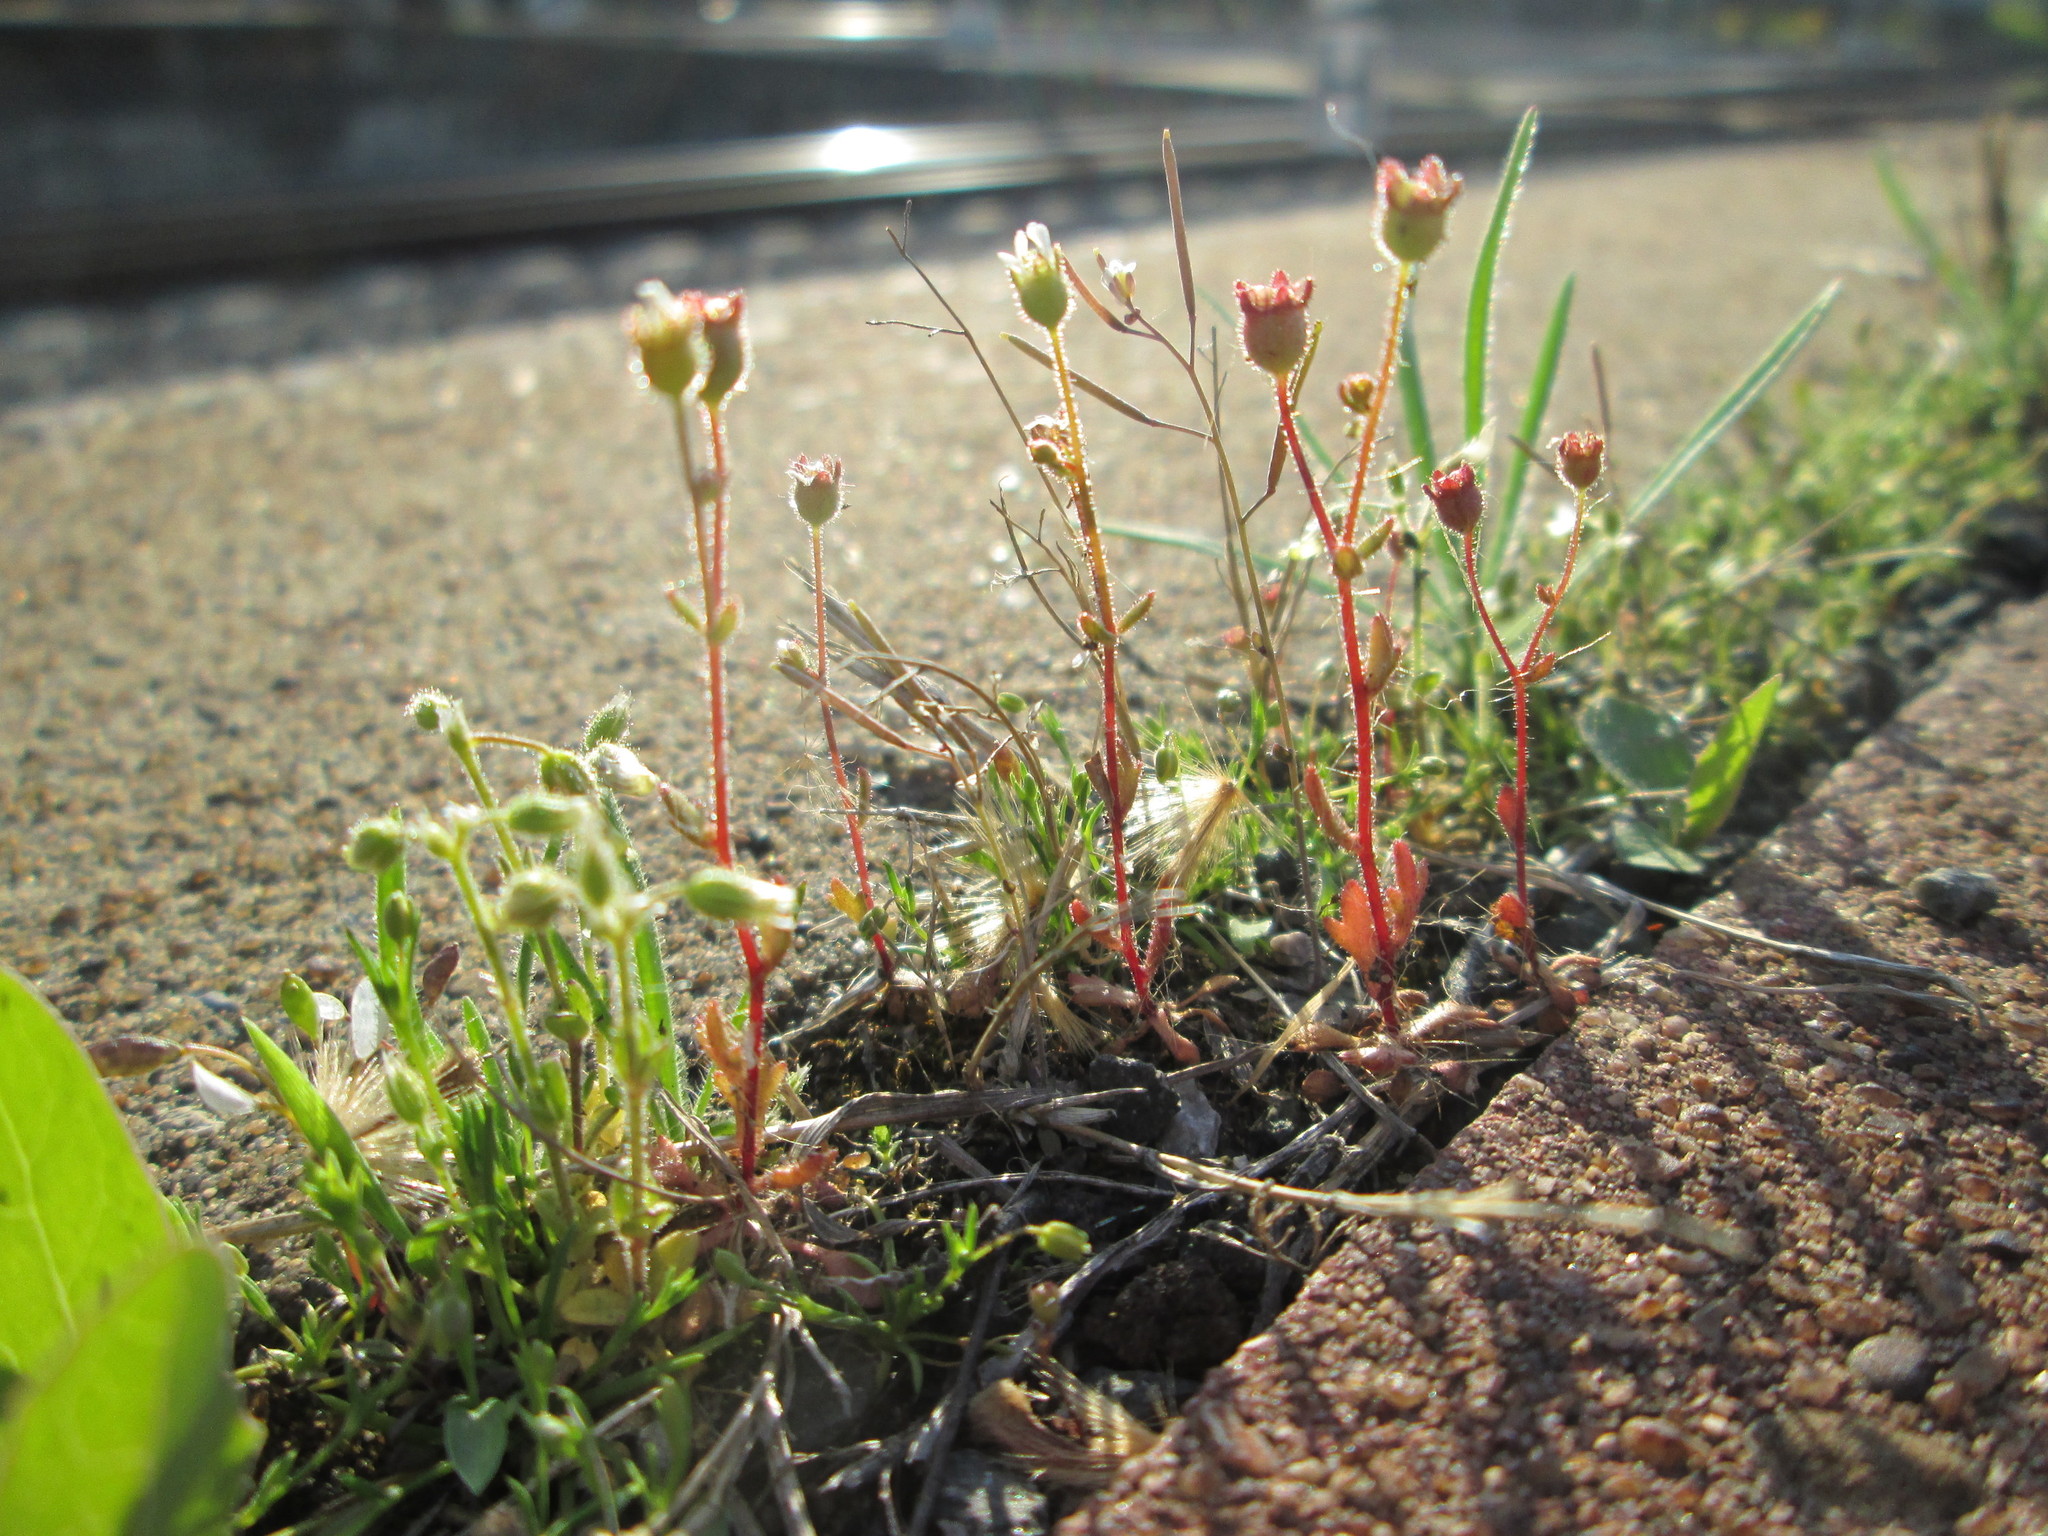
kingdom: Plantae
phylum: Tracheophyta
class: Magnoliopsida
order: Saxifragales
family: Saxifragaceae
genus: Saxifraga
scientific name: Saxifraga tridactylites
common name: Rue-leaved saxifrage
